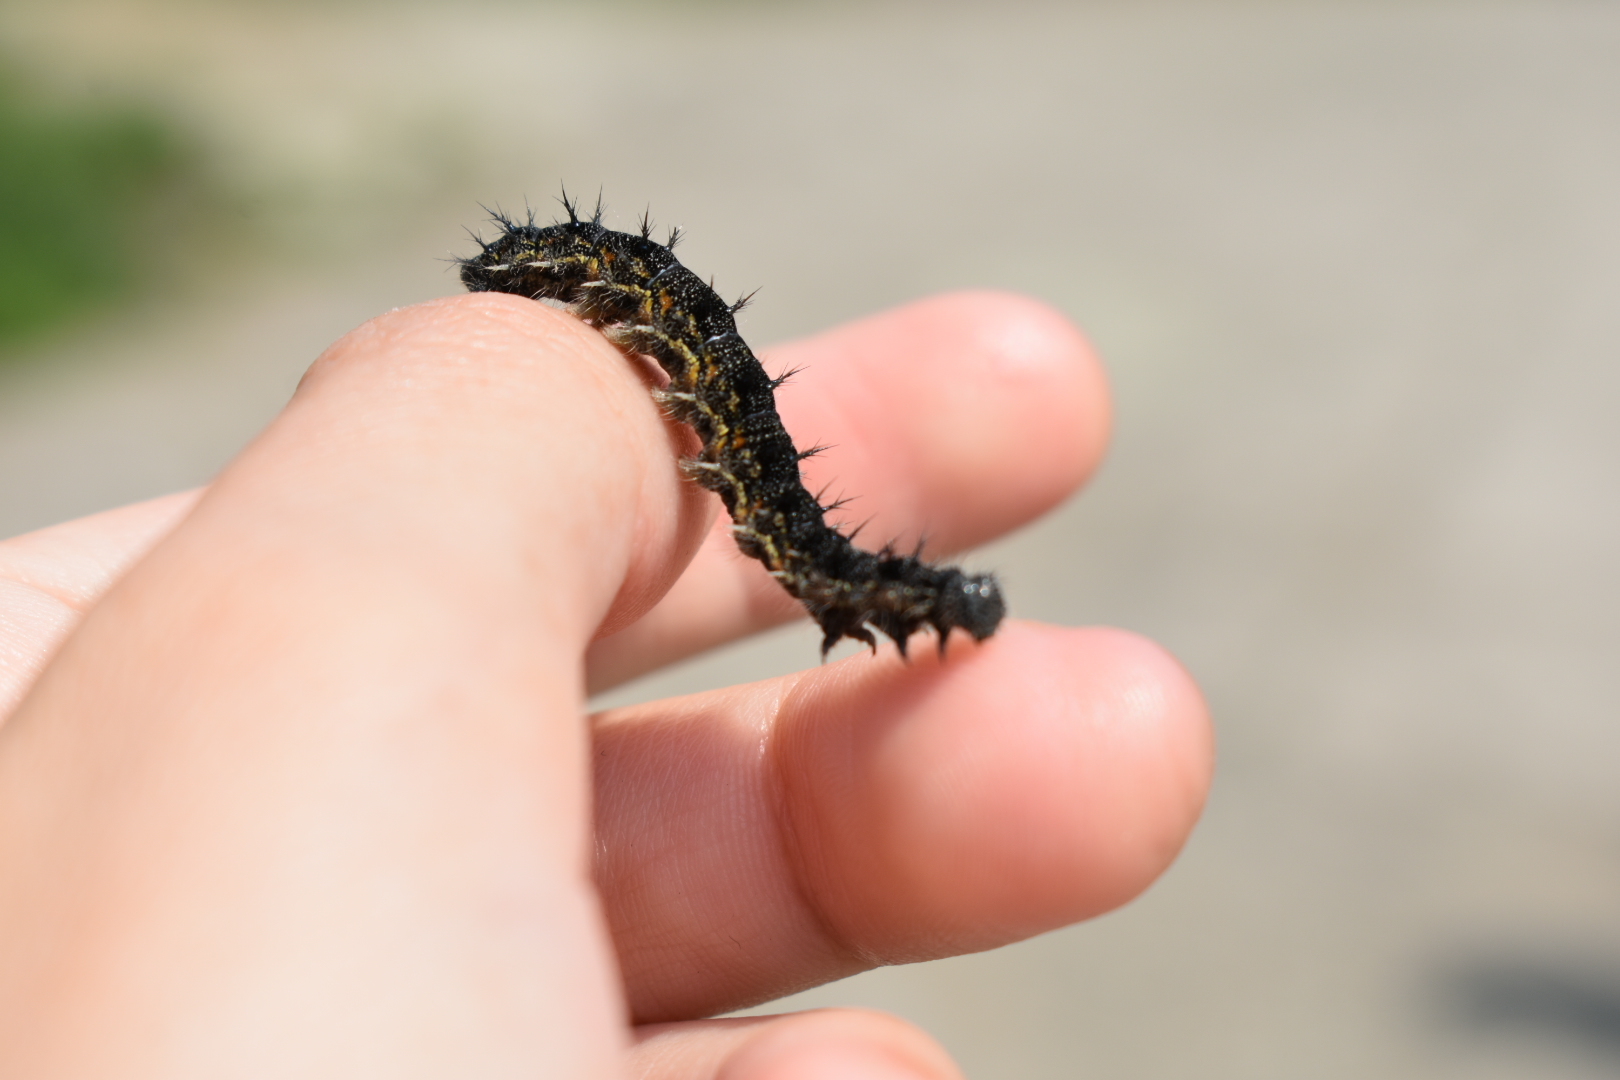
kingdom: Animalia
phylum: Arthropoda
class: Insecta
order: Lepidoptera
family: Nymphalidae
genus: Aglais
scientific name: Aglais urticae
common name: Small tortoiseshell
